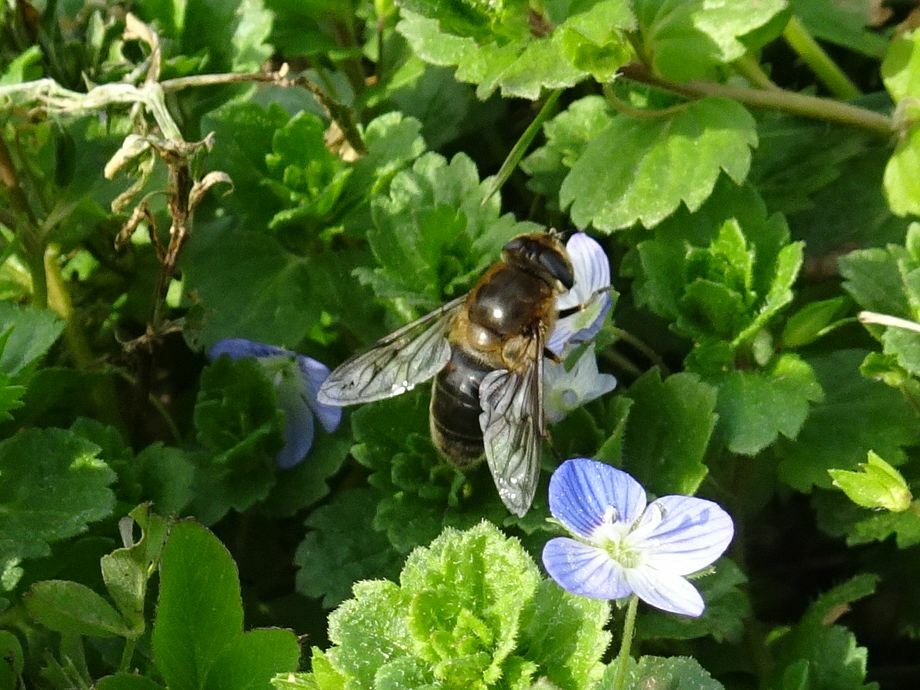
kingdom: Animalia
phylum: Arthropoda
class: Insecta
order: Diptera
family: Syrphidae
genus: Eristalis
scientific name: Eristalis tenax
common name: Drone fly
